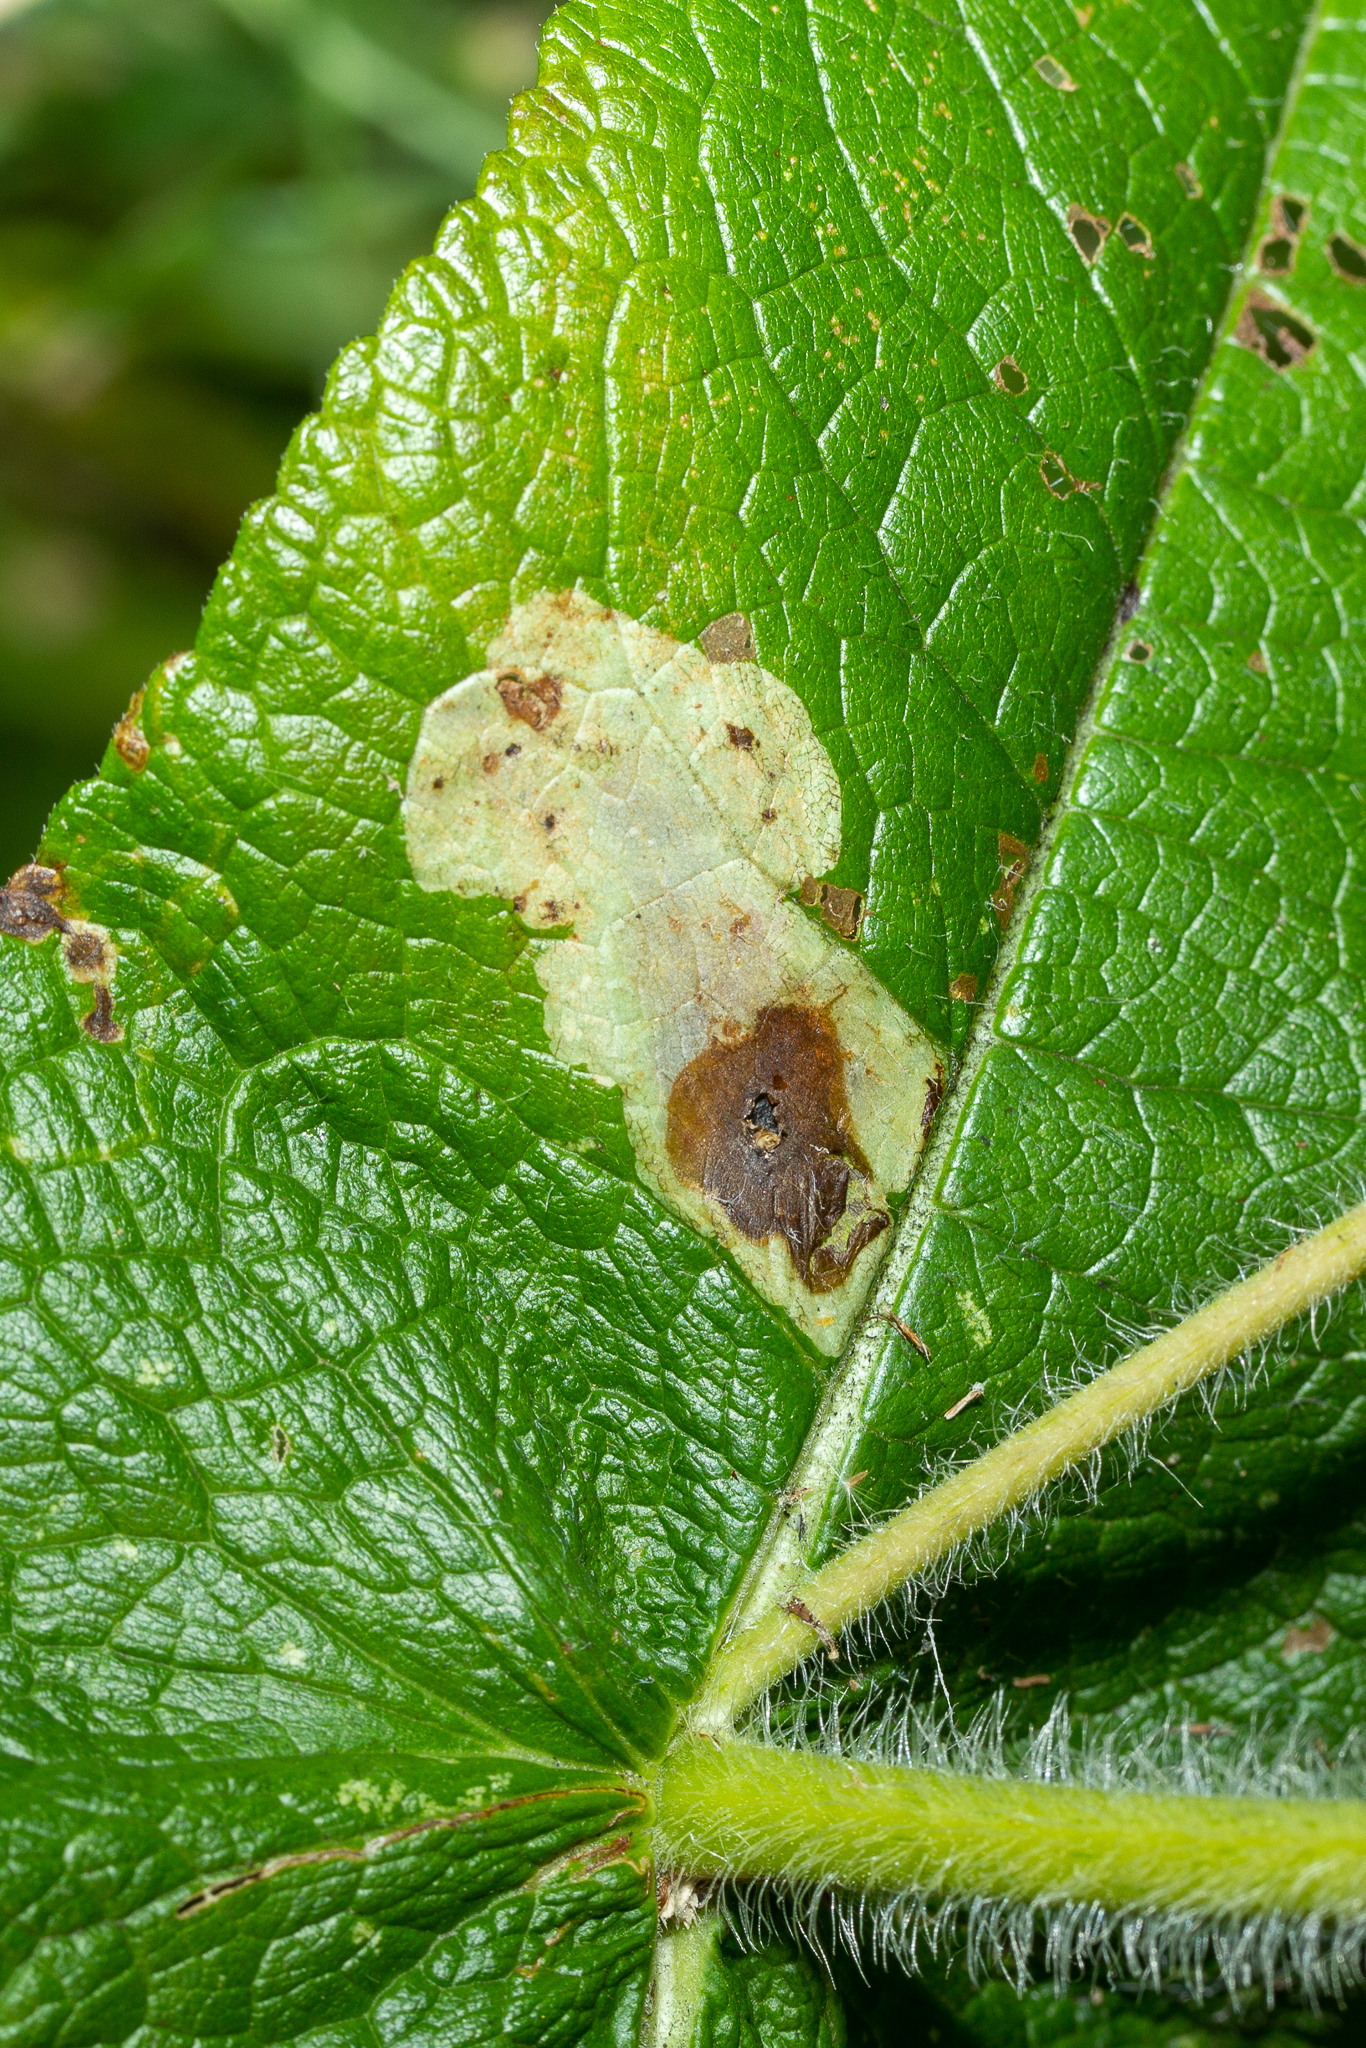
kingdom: Animalia
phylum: Arthropoda
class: Insecta
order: Diptera
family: Agromyzidae
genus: Calycomyza
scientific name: Calycomyza flavinotum
